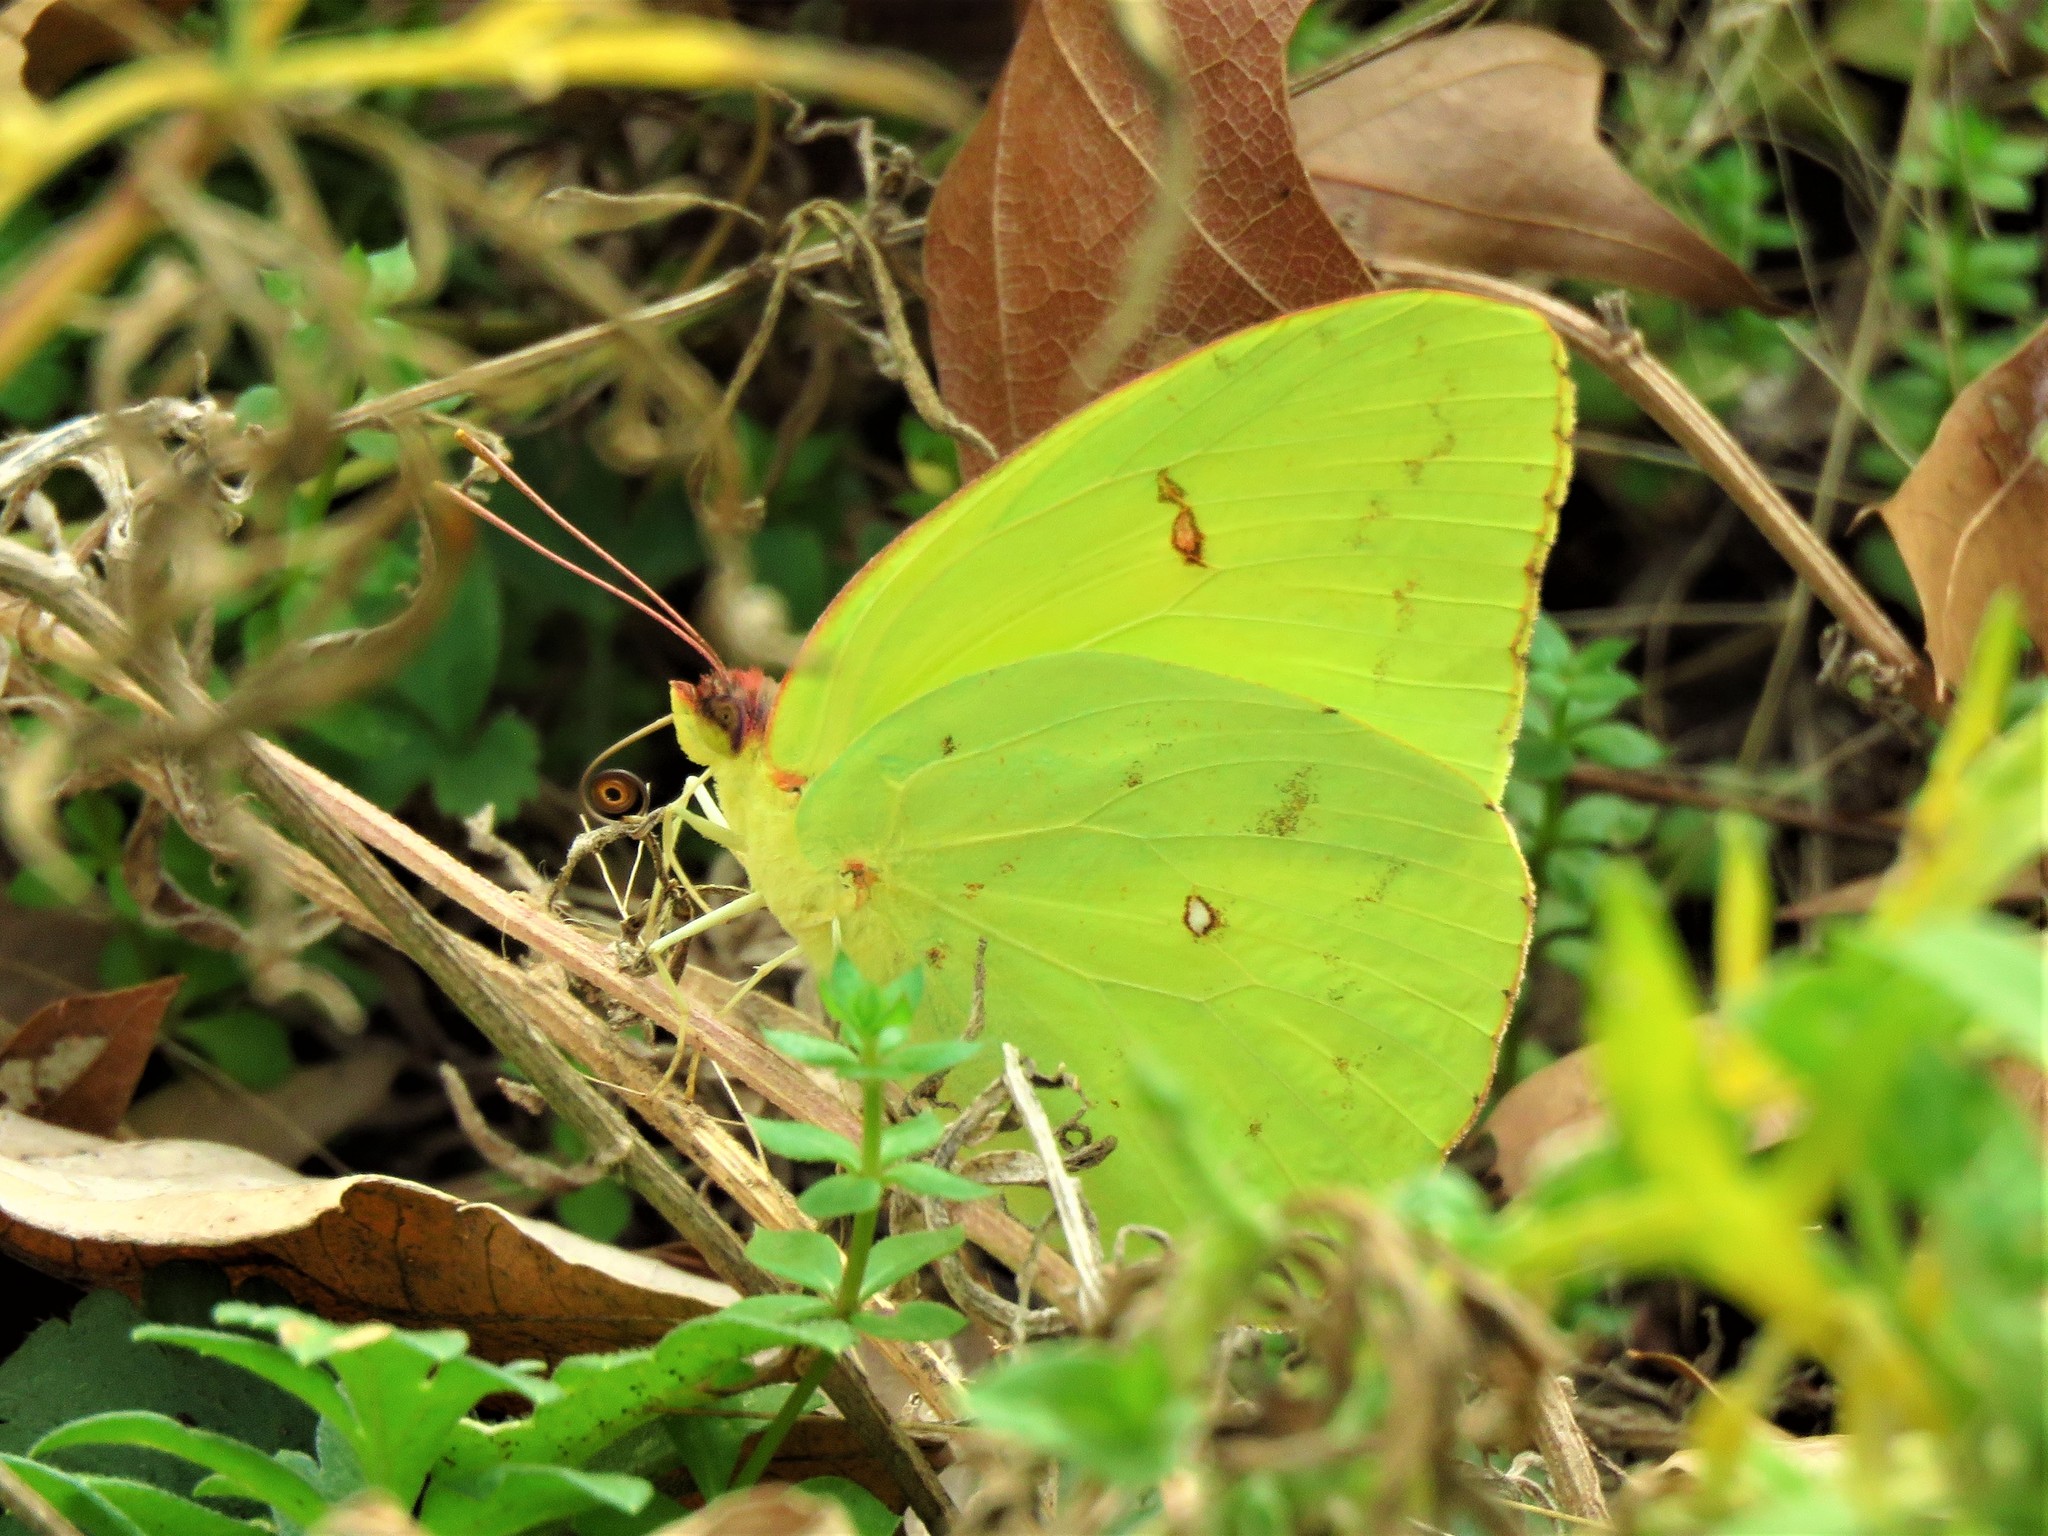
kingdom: Animalia
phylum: Arthropoda
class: Insecta
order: Lepidoptera
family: Pieridae
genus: Phoebis
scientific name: Phoebis sennae
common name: Cloudless sulphur
